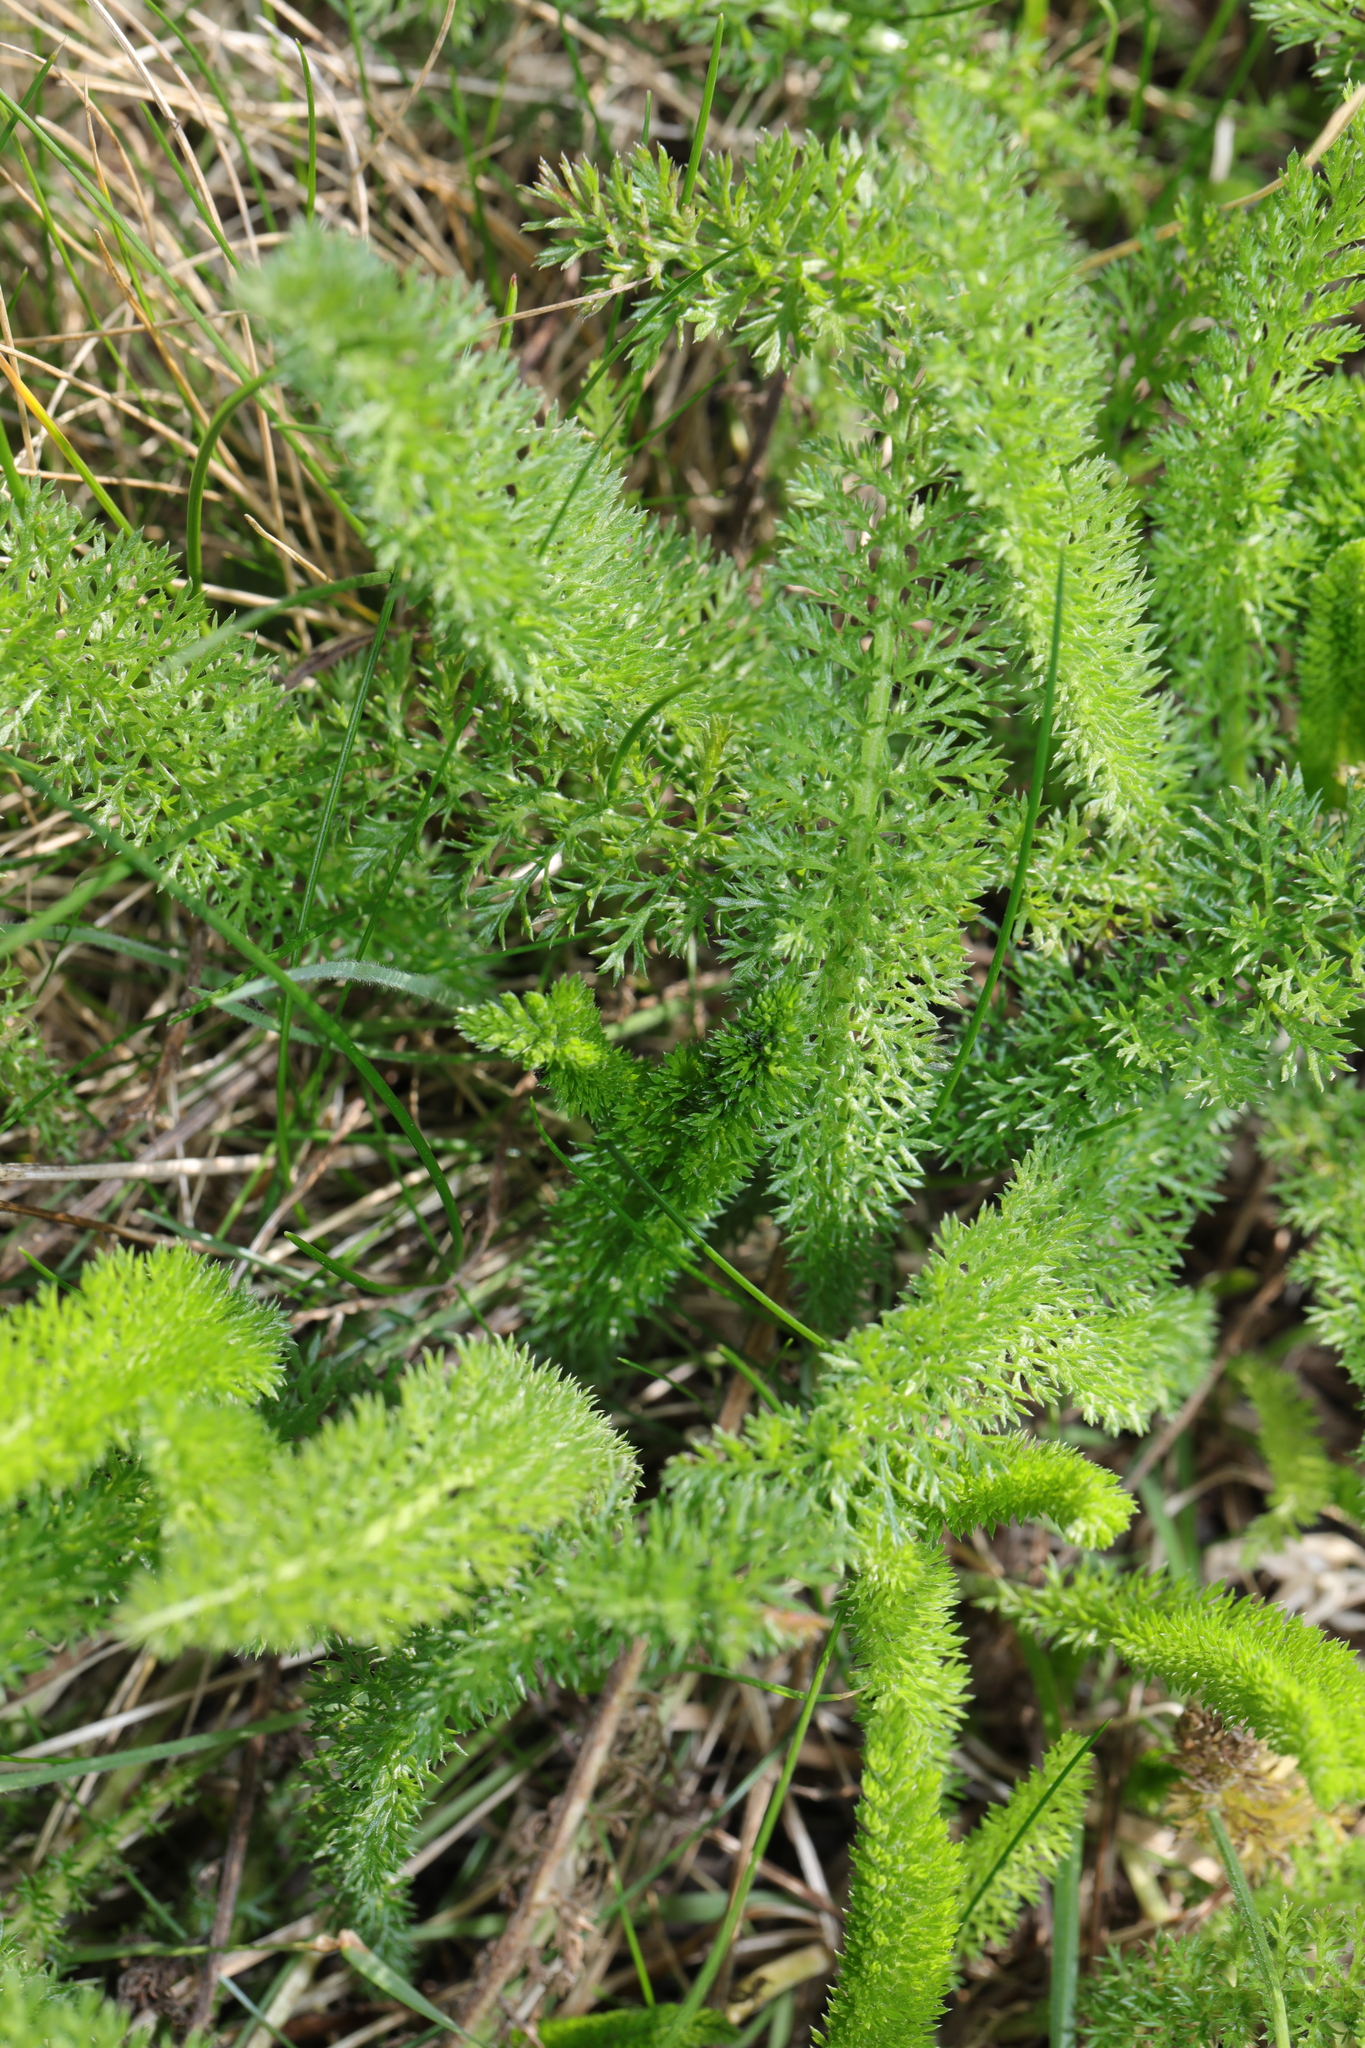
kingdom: Plantae
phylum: Tracheophyta
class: Magnoliopsida
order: Asterales
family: Asteraceae
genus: Achillea
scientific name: Achillea millefolium
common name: Yarrow
